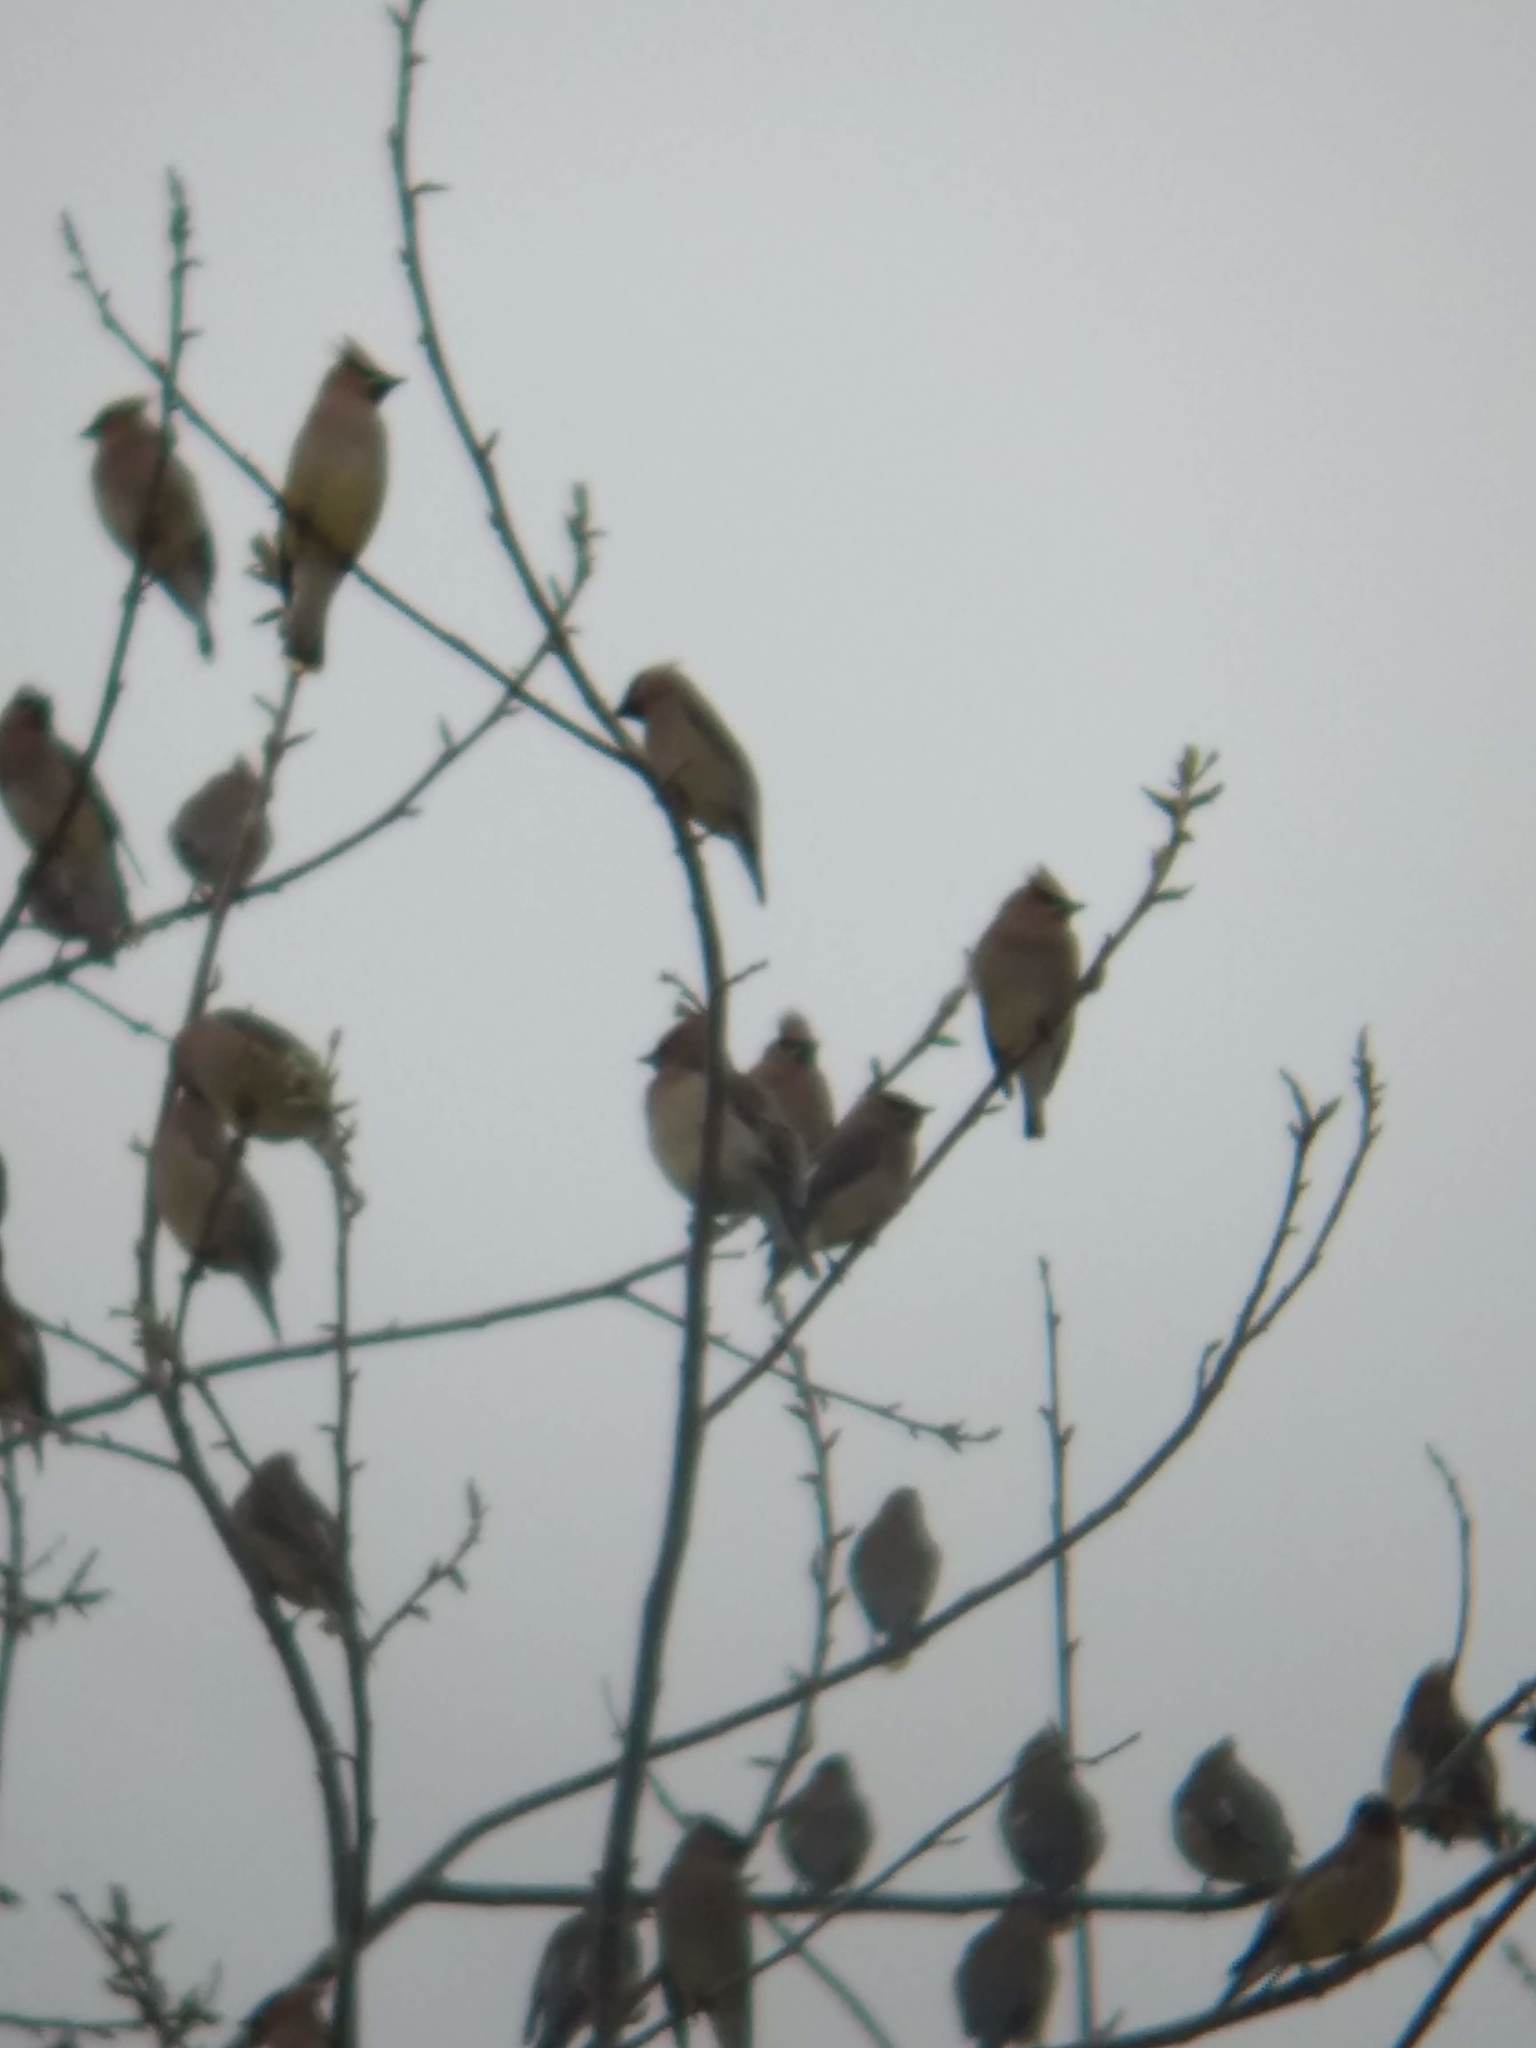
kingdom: Animalia
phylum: Chordata
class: Aves
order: Passeriformes
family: Bombycillidae
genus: Bombycilla
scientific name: Bombycilla cedrorum
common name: Cedar waxwing
